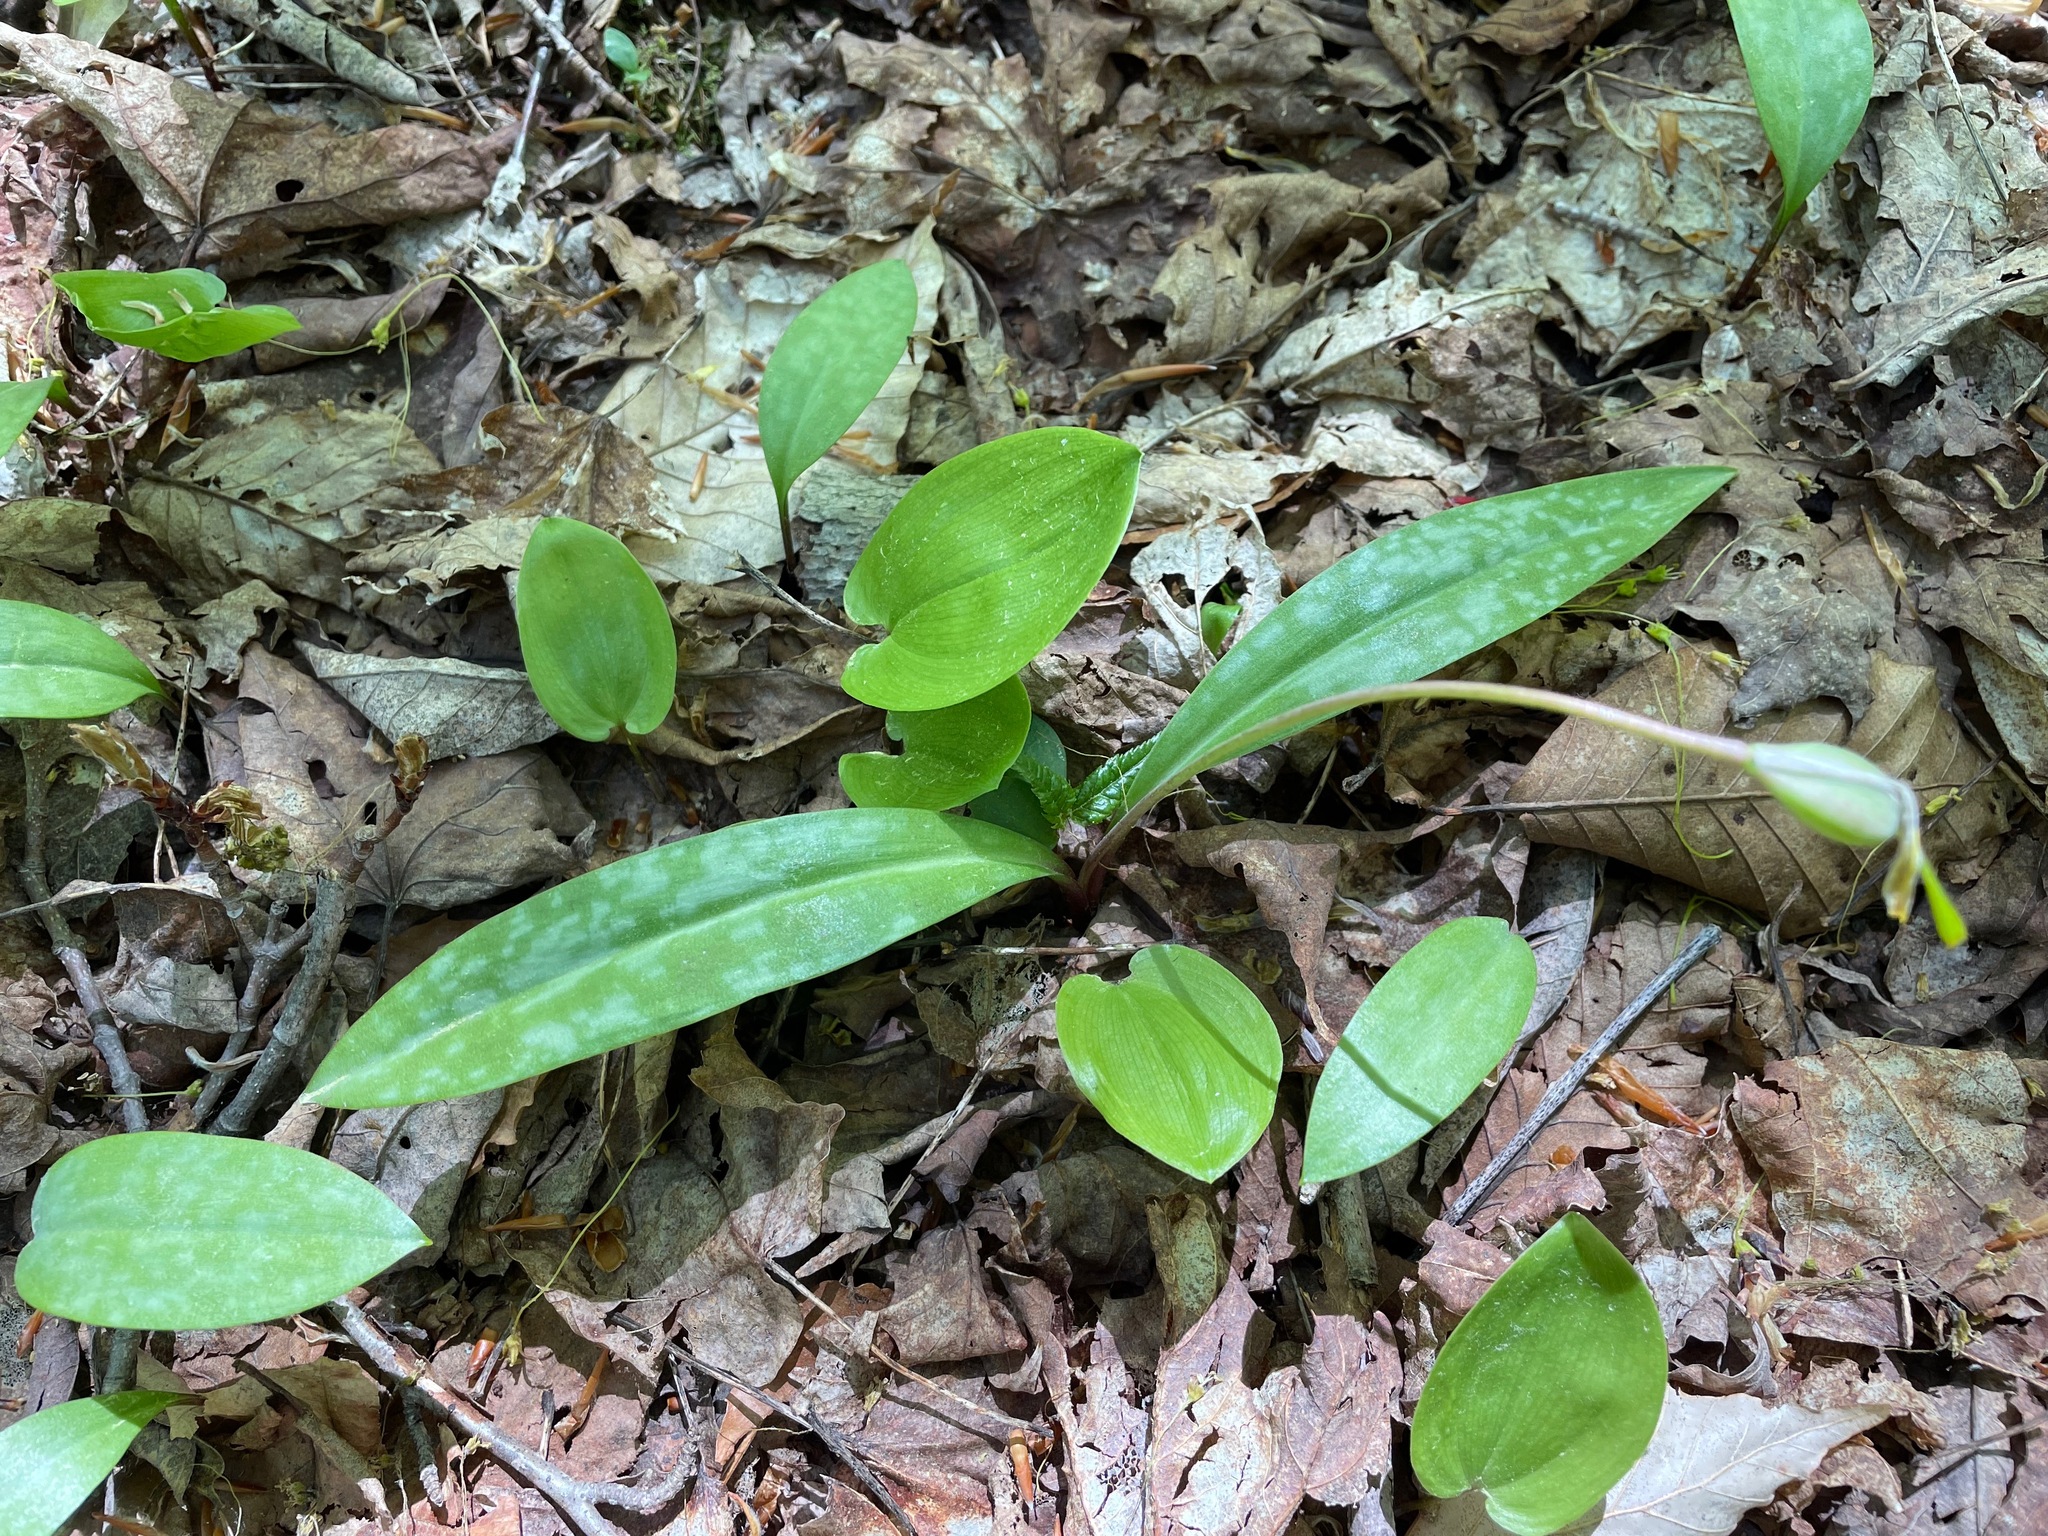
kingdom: Plantae
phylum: Tracheophyta
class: Liliopsida
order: Liliales
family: Liliaceae
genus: Erythronium
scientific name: Erythronium americanum
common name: Yellow adder's-tongue
